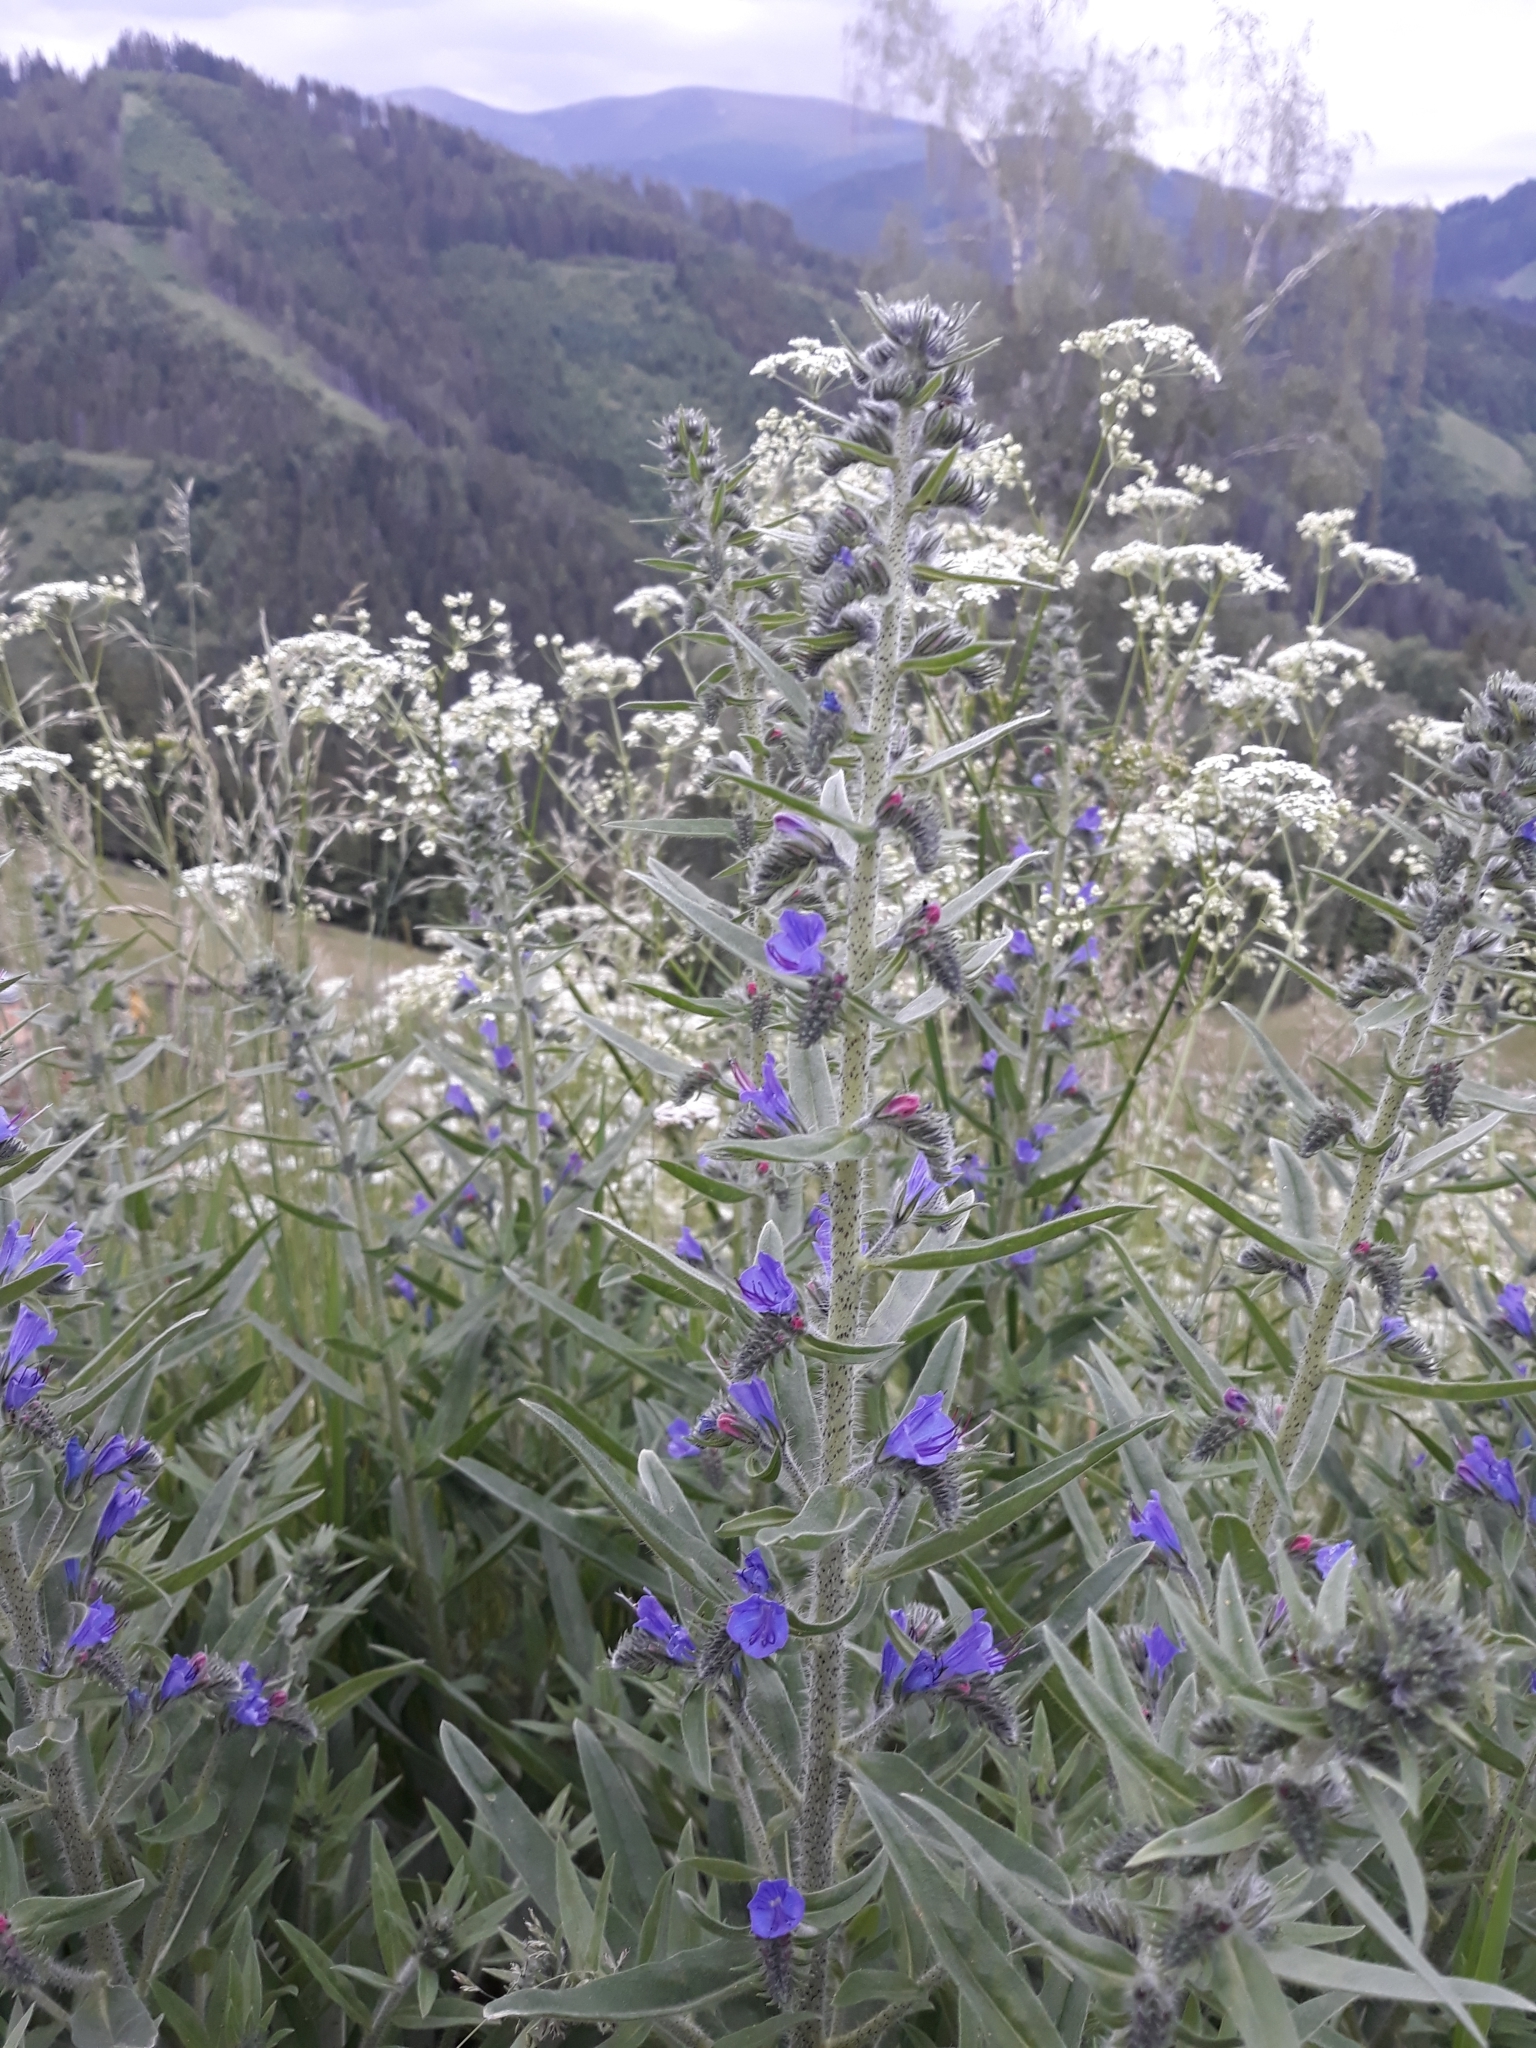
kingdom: Plantae
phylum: Tracheophyta
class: Magnoliopsida
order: Boraginales
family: Boraginaceae
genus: Echium
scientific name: Echium vulgare
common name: Common viper's bugloss
